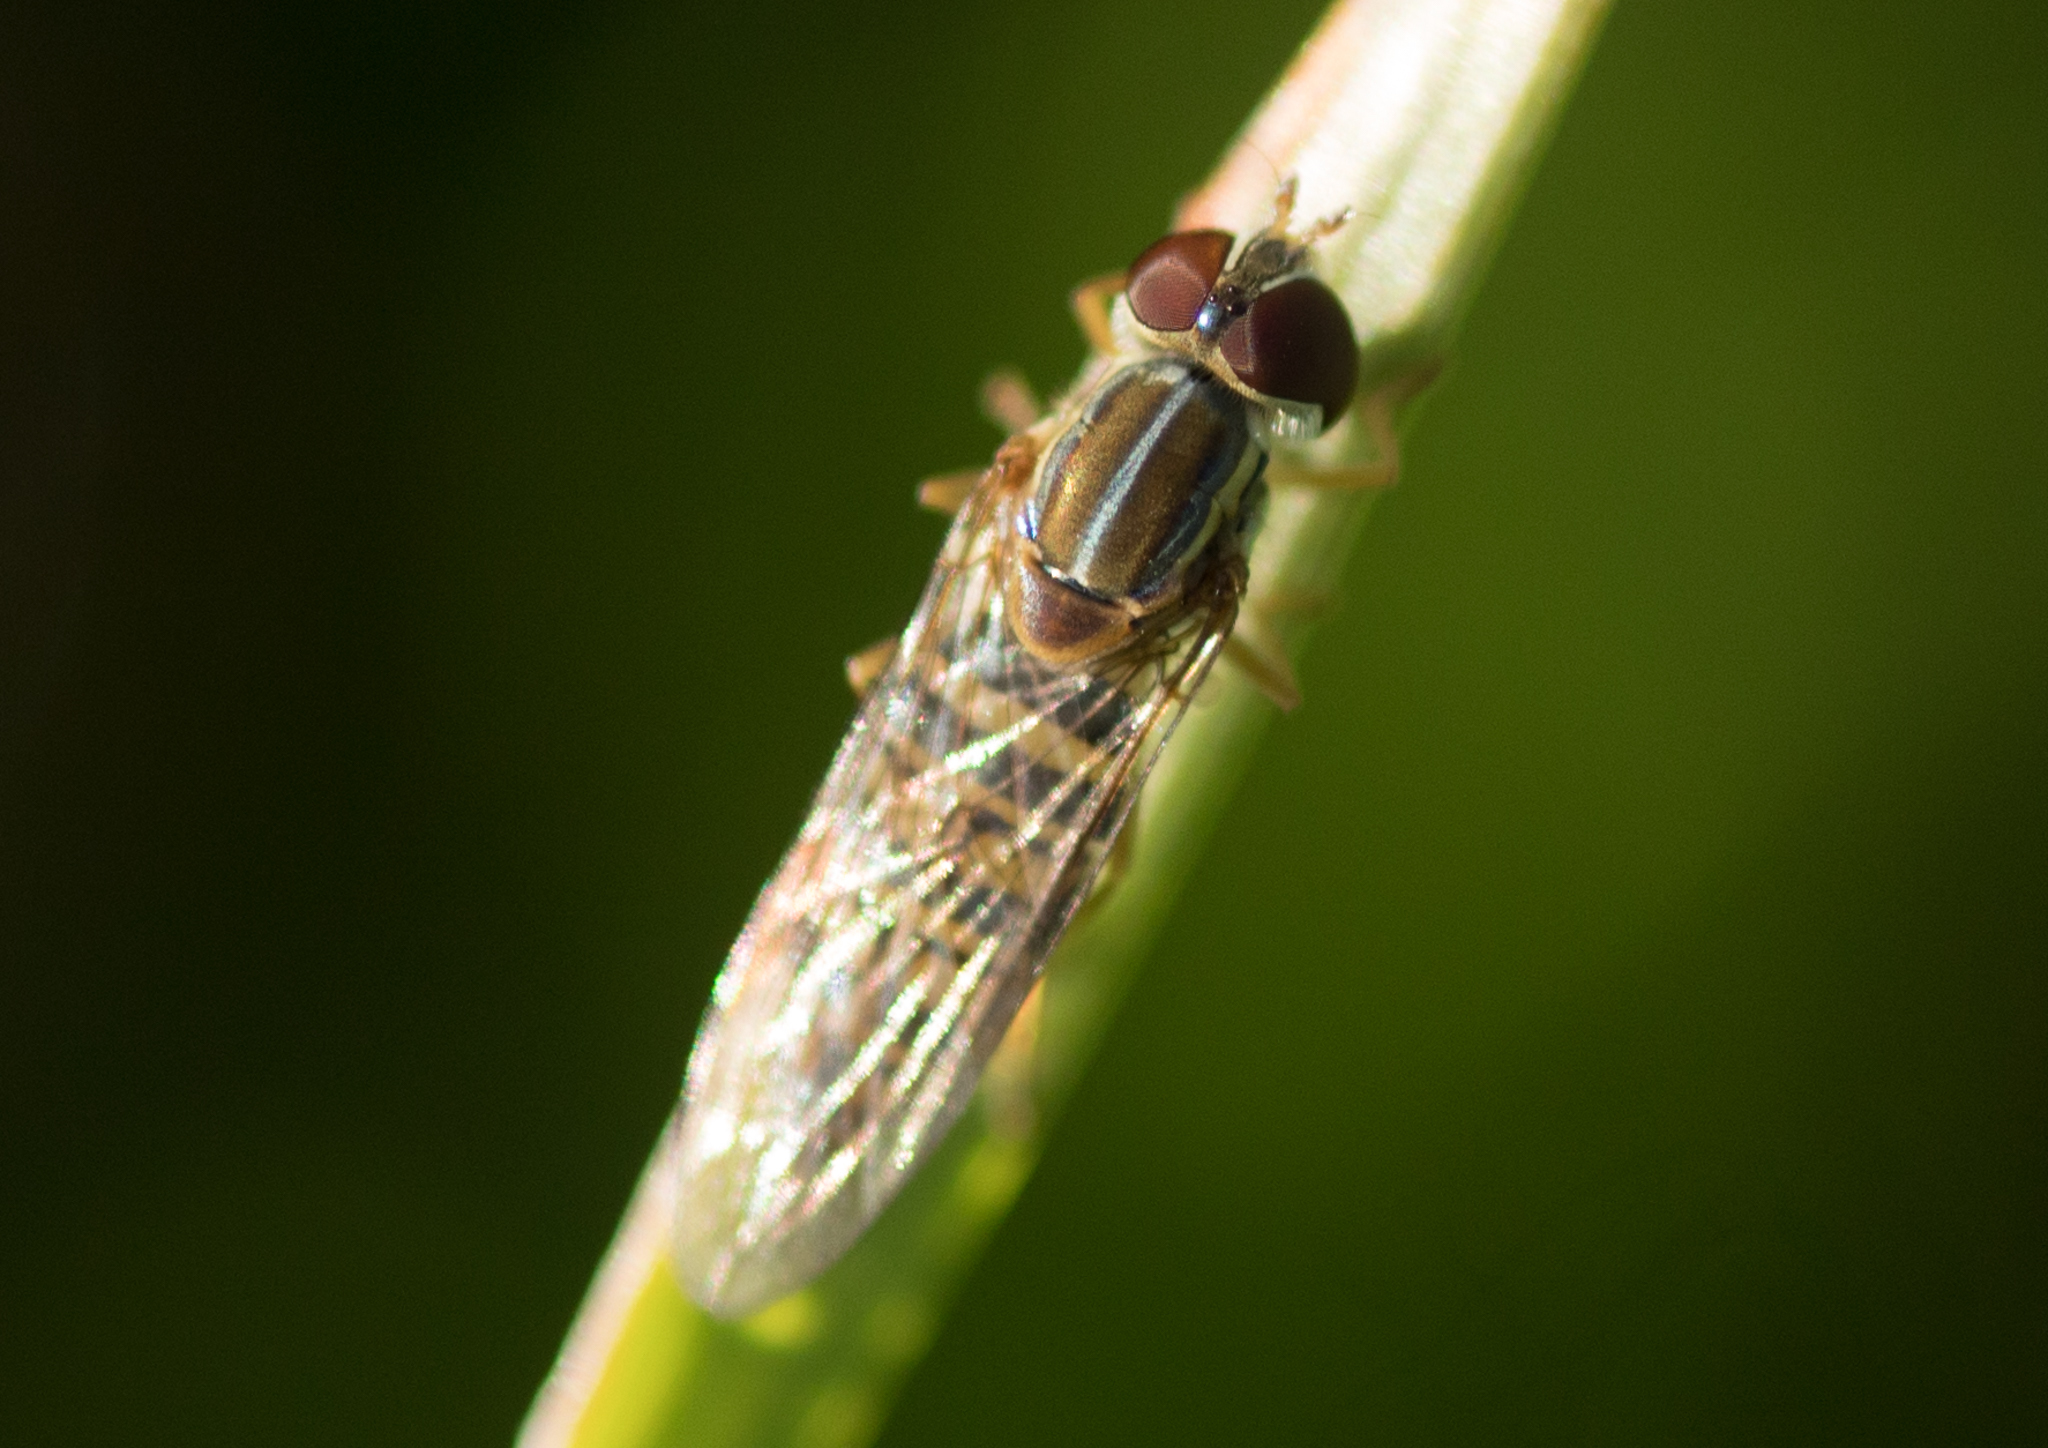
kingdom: Animalia
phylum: Arthropoda
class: Insecta
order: Diptera
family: Syrphidae
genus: Toxomerus
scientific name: Toxomerus politus
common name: Maize calligrapher
